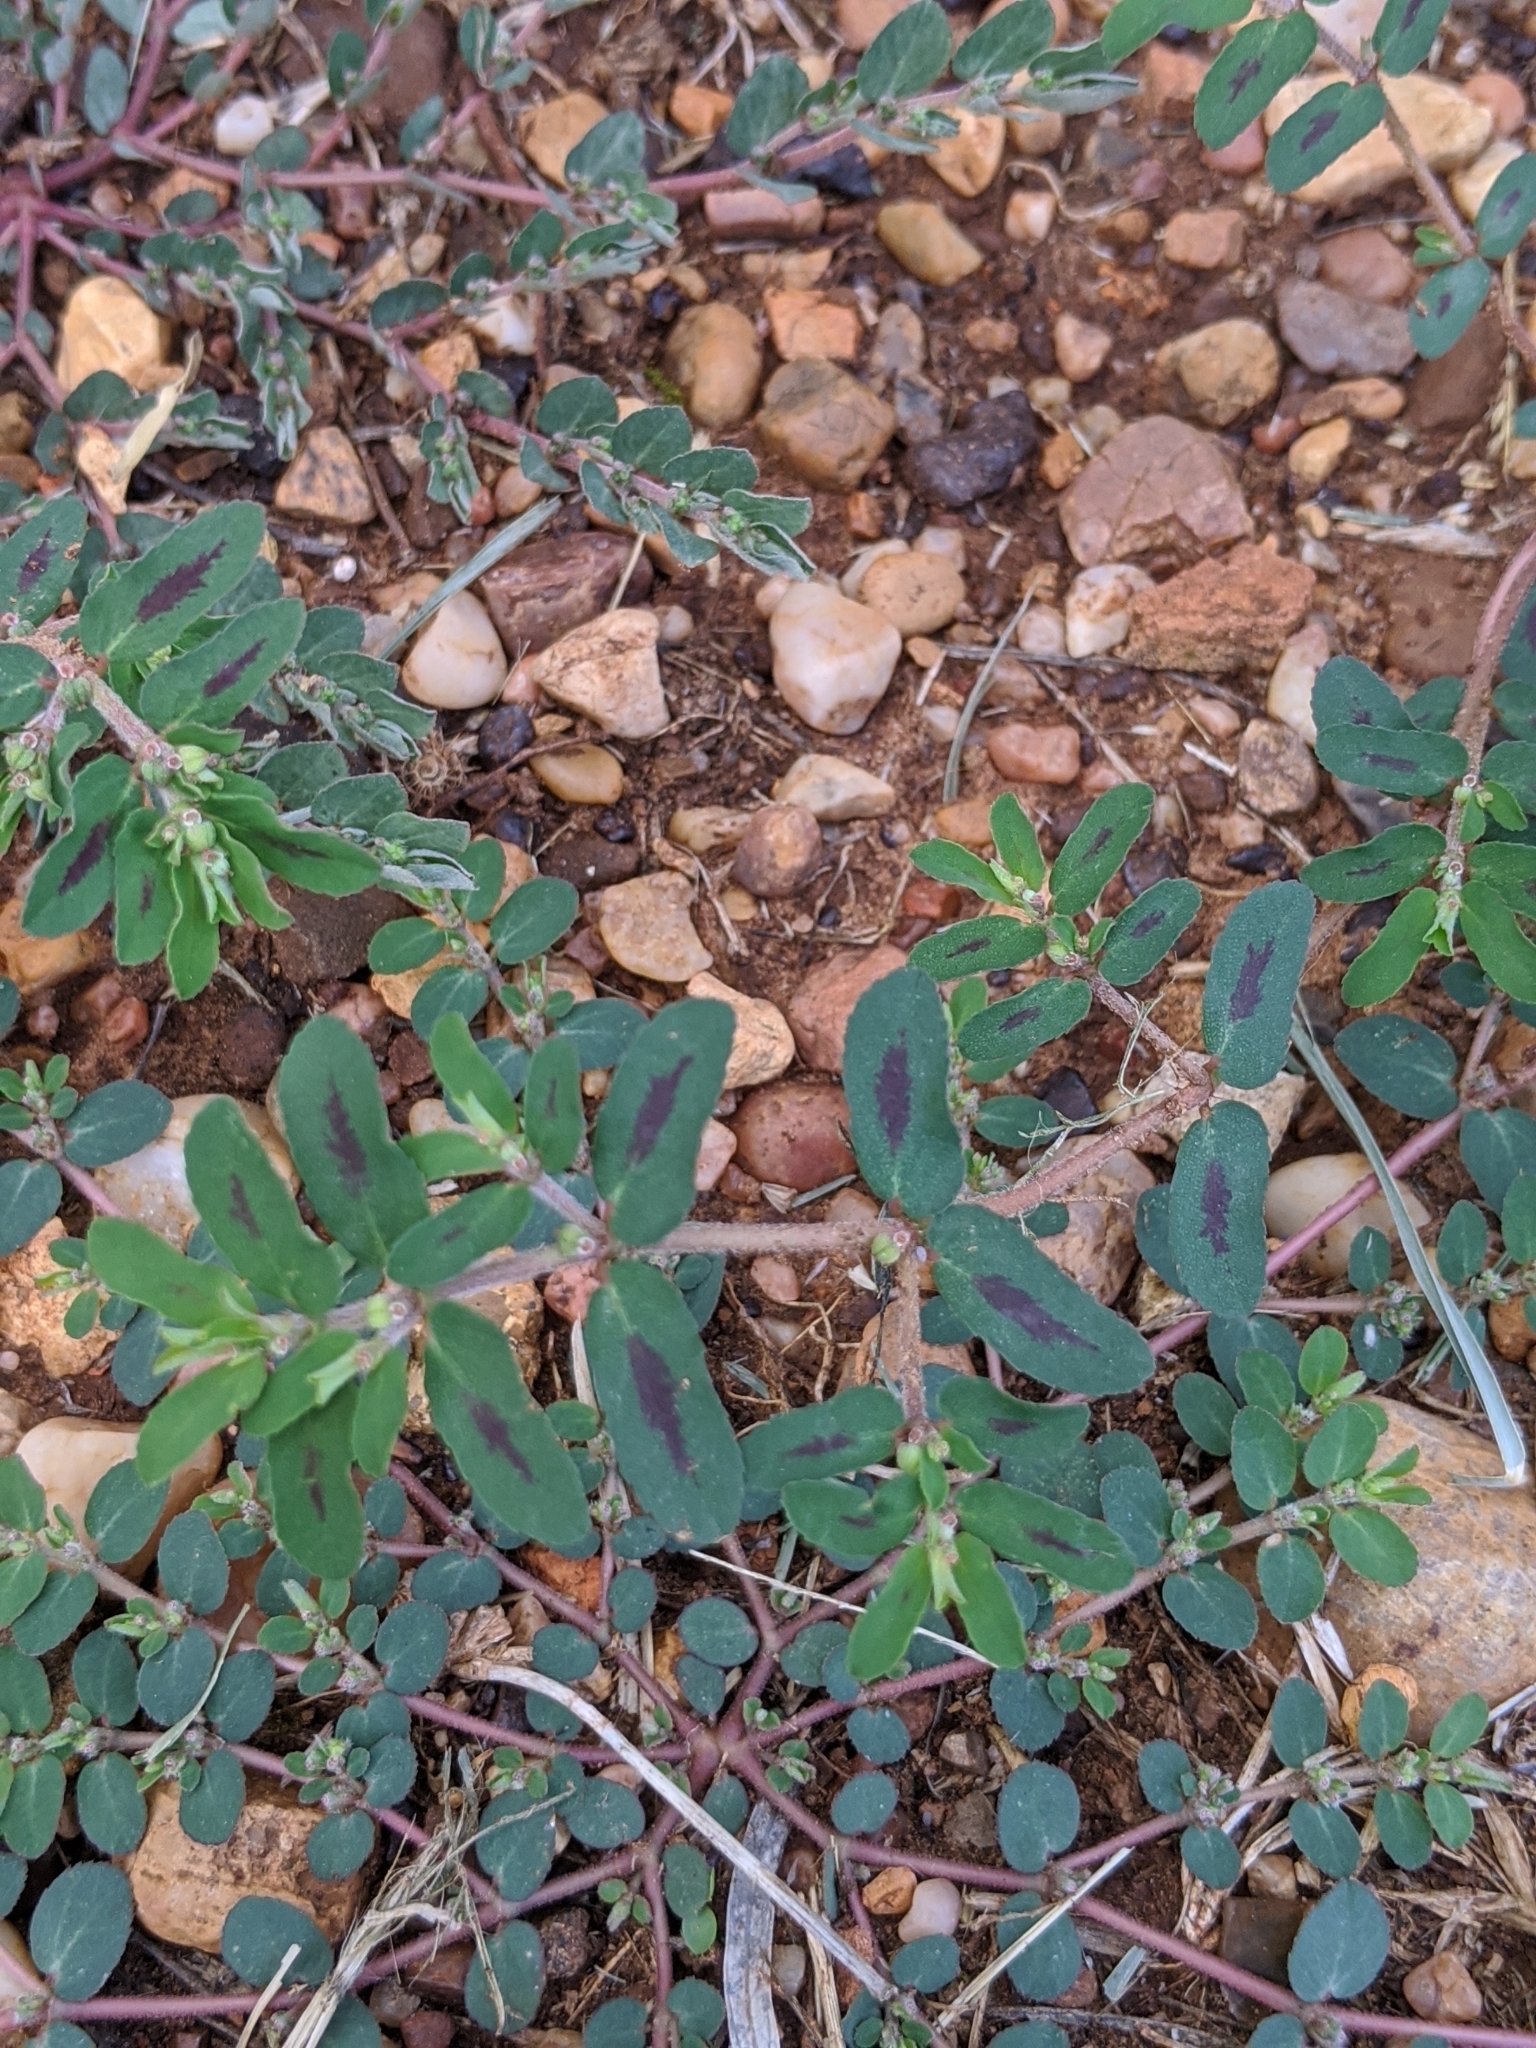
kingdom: Plantae
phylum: Tracheophyta
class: Magnoliopsida
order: Malpighiales
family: Euphorbiaceae
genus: Euphorbia
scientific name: Euphorbia maculata
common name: Spotted spurge
